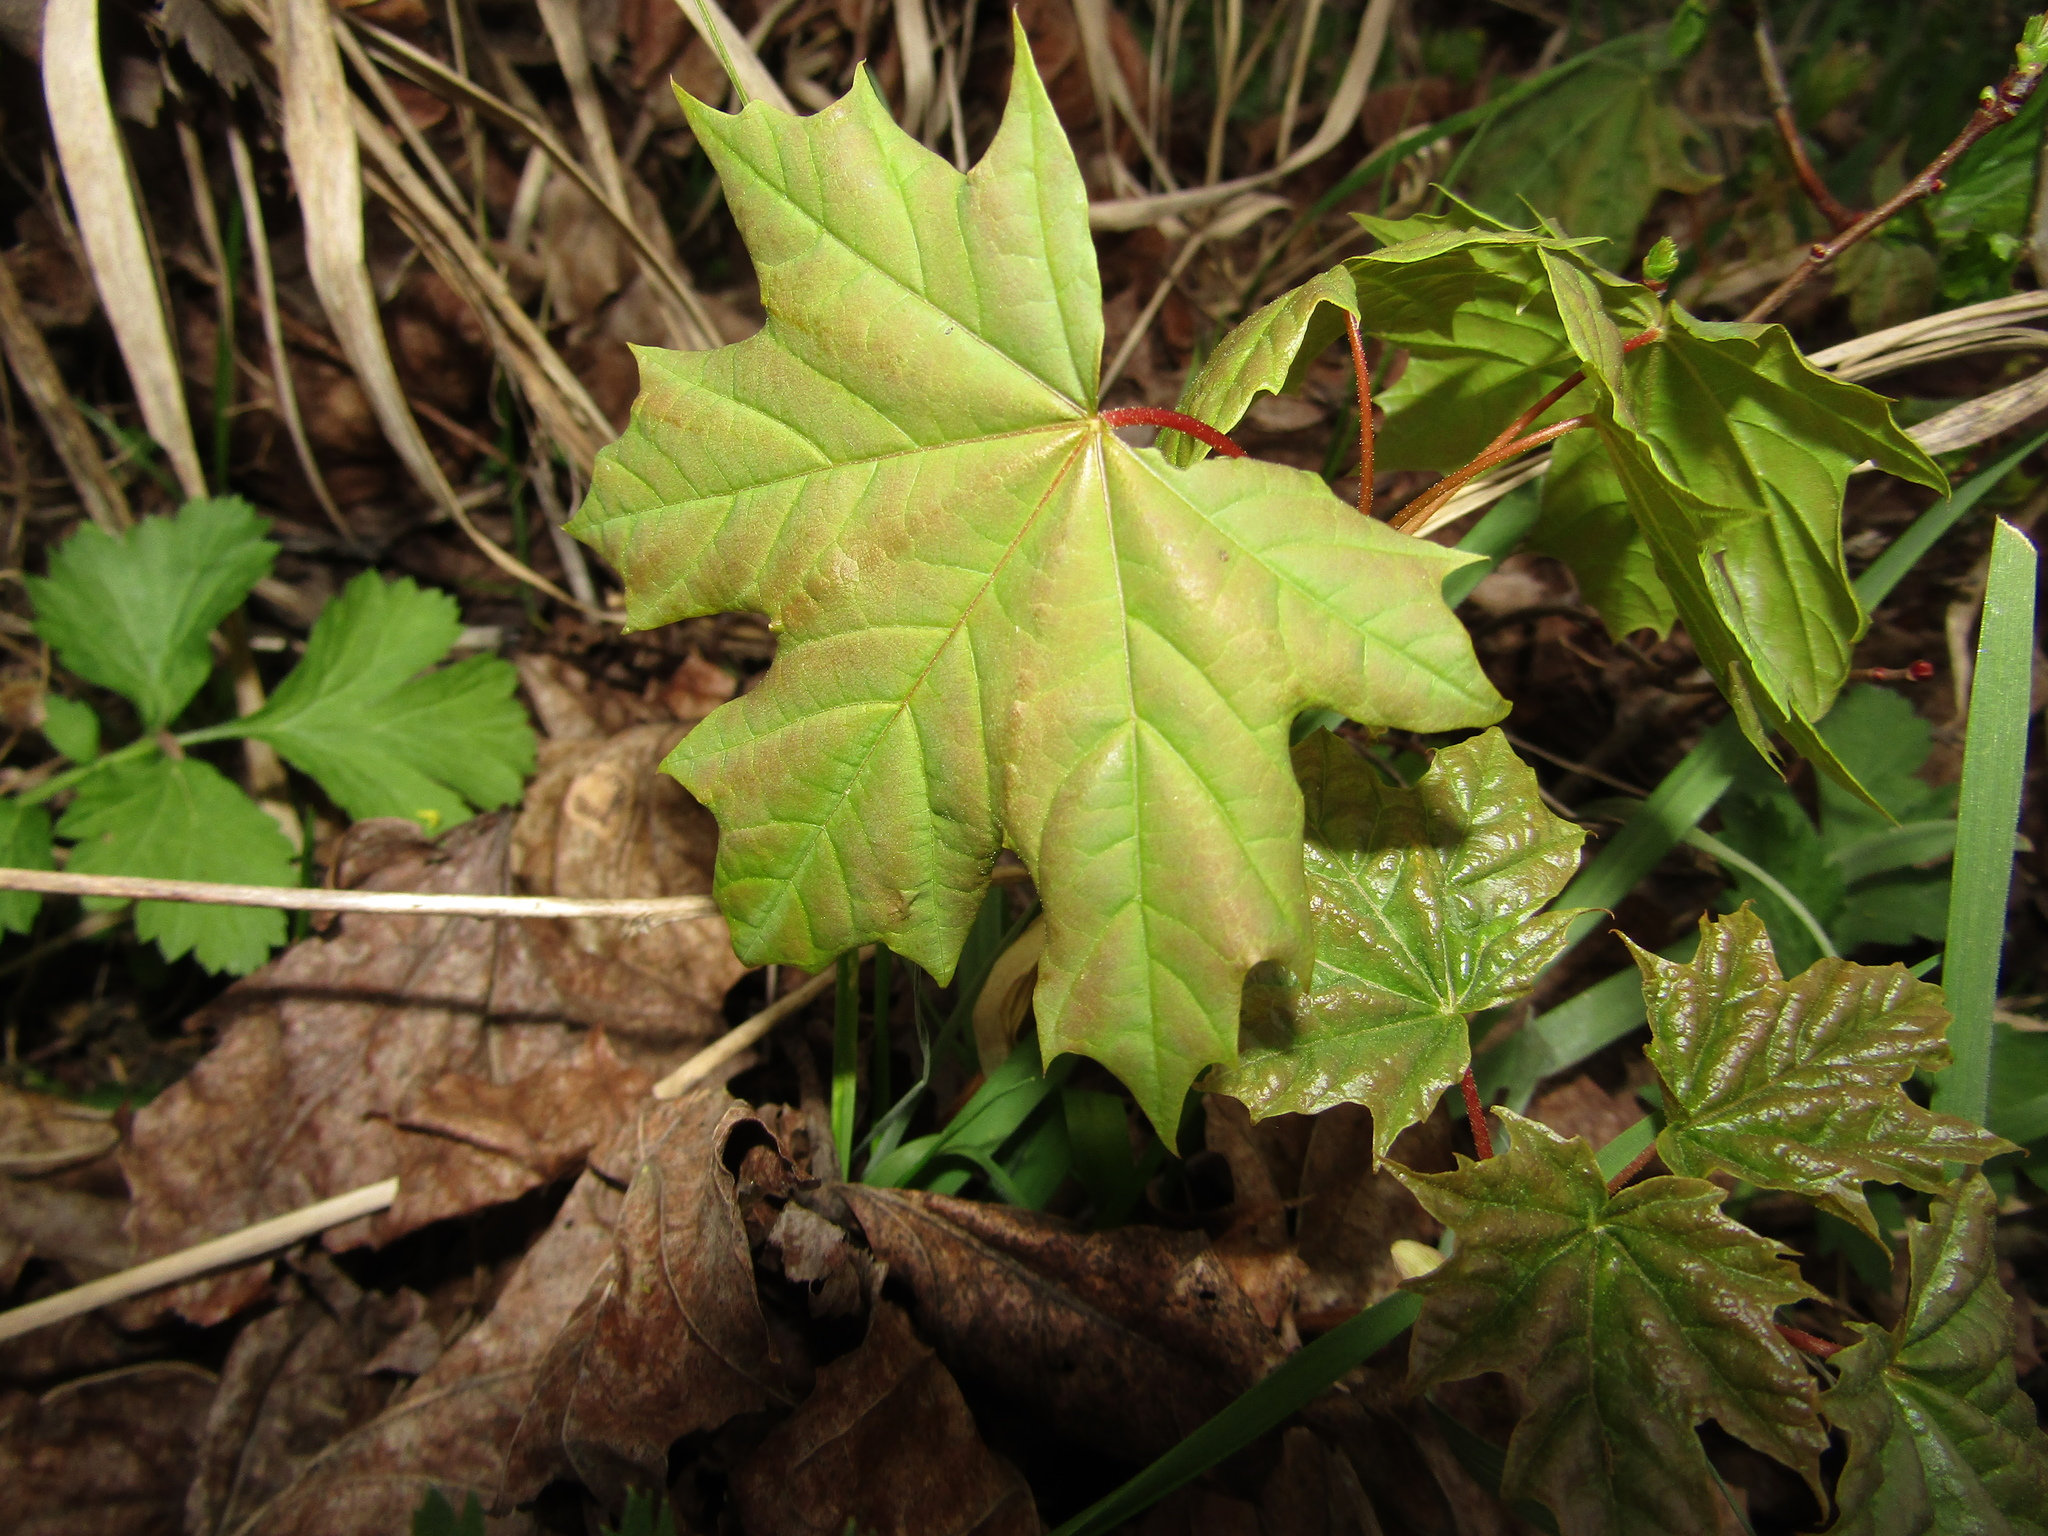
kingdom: Plantae
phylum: Tracheophyta
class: Magnoliopsida
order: Sapindales
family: Sapindaceae
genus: Acer
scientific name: Acer platanoides
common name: Norway maple
